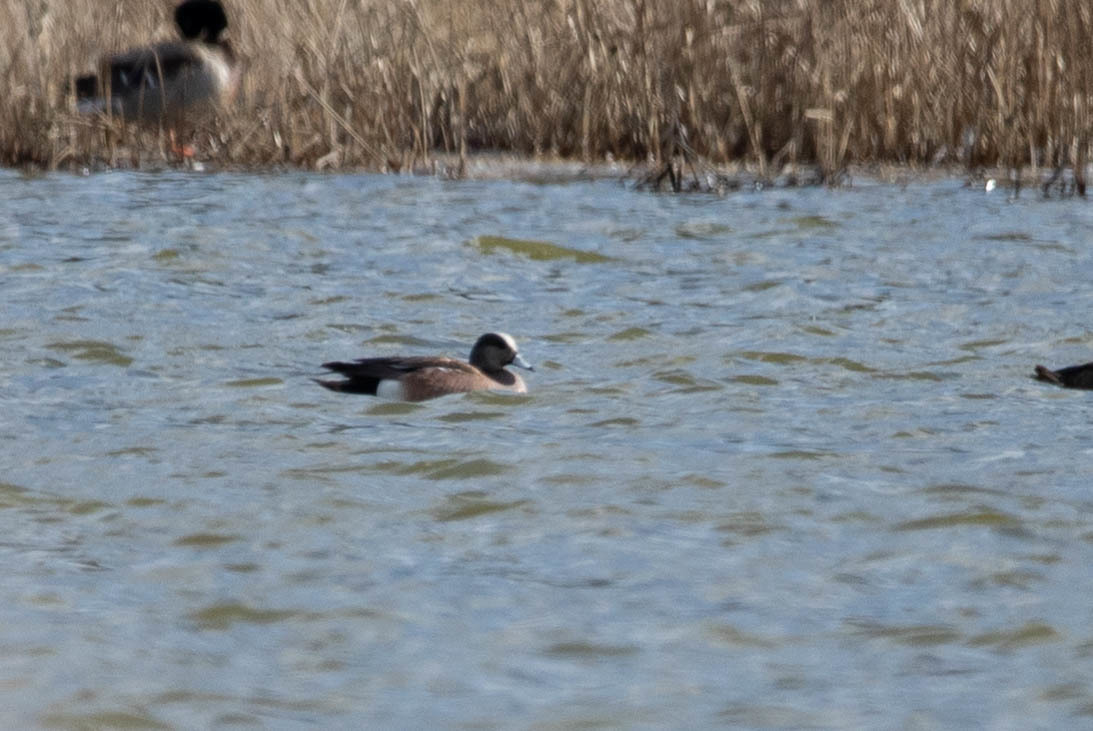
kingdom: Animalia
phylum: Chordata
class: Aves
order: Anseriformes
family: Anatidae
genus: Mareca
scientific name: Mareca americana
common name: American wigeon
